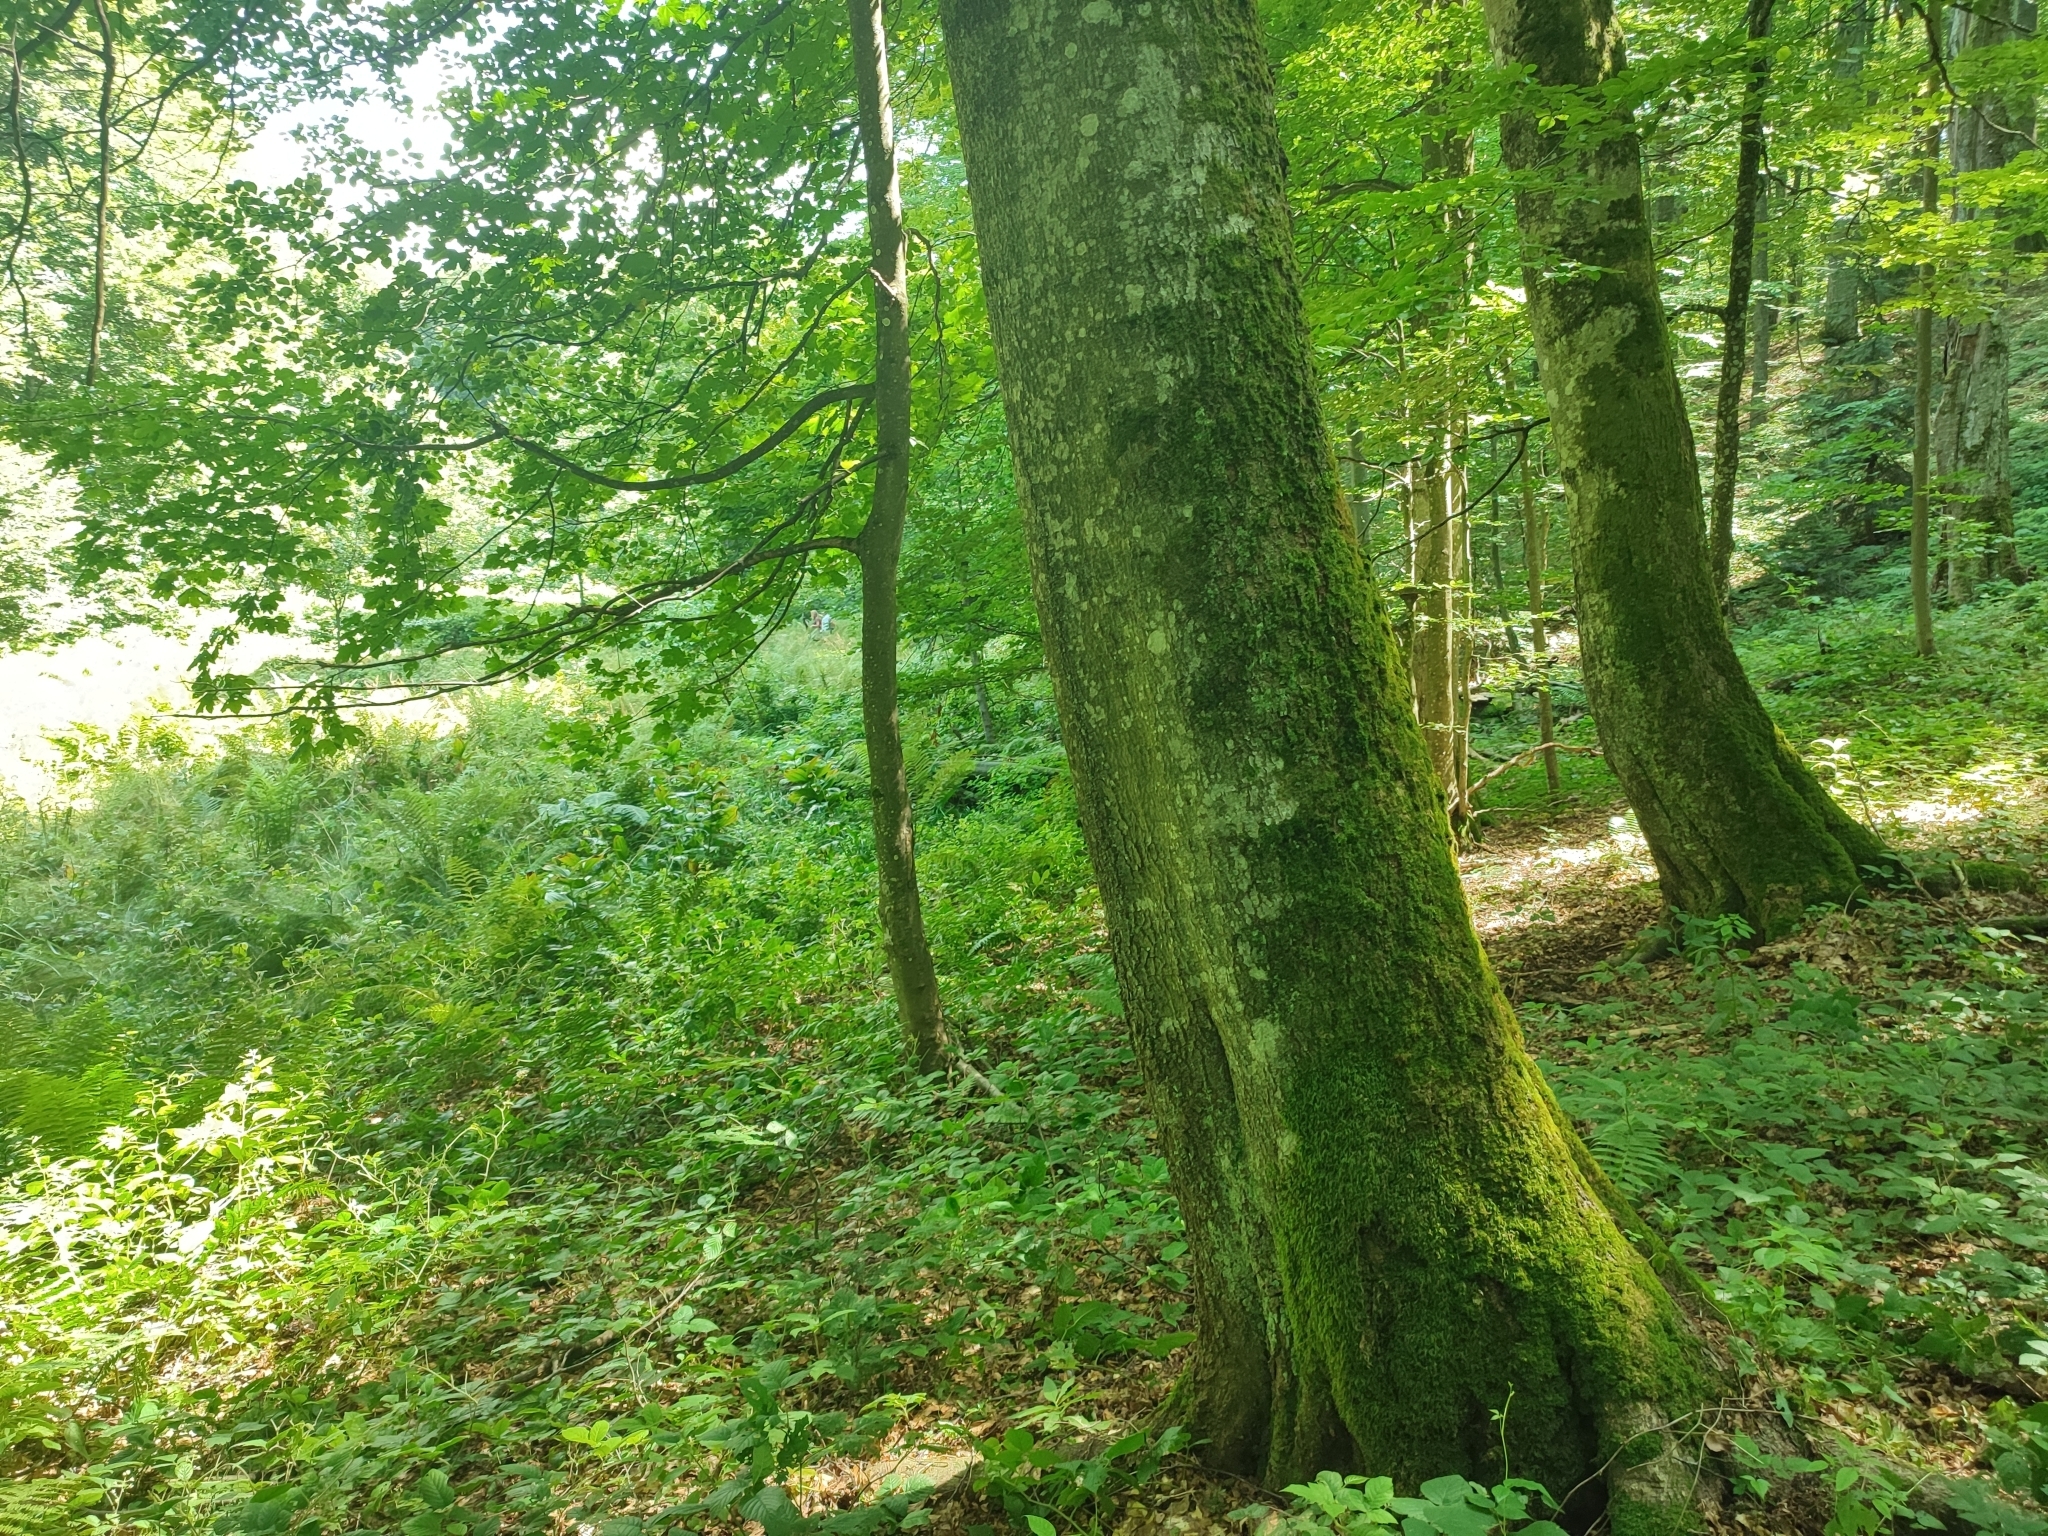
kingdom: Plantae
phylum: Tracheophyta
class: Magnoliopsida
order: Fagales
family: Fagaceae
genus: Fagus
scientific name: Fagus sylvatica
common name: Beech
